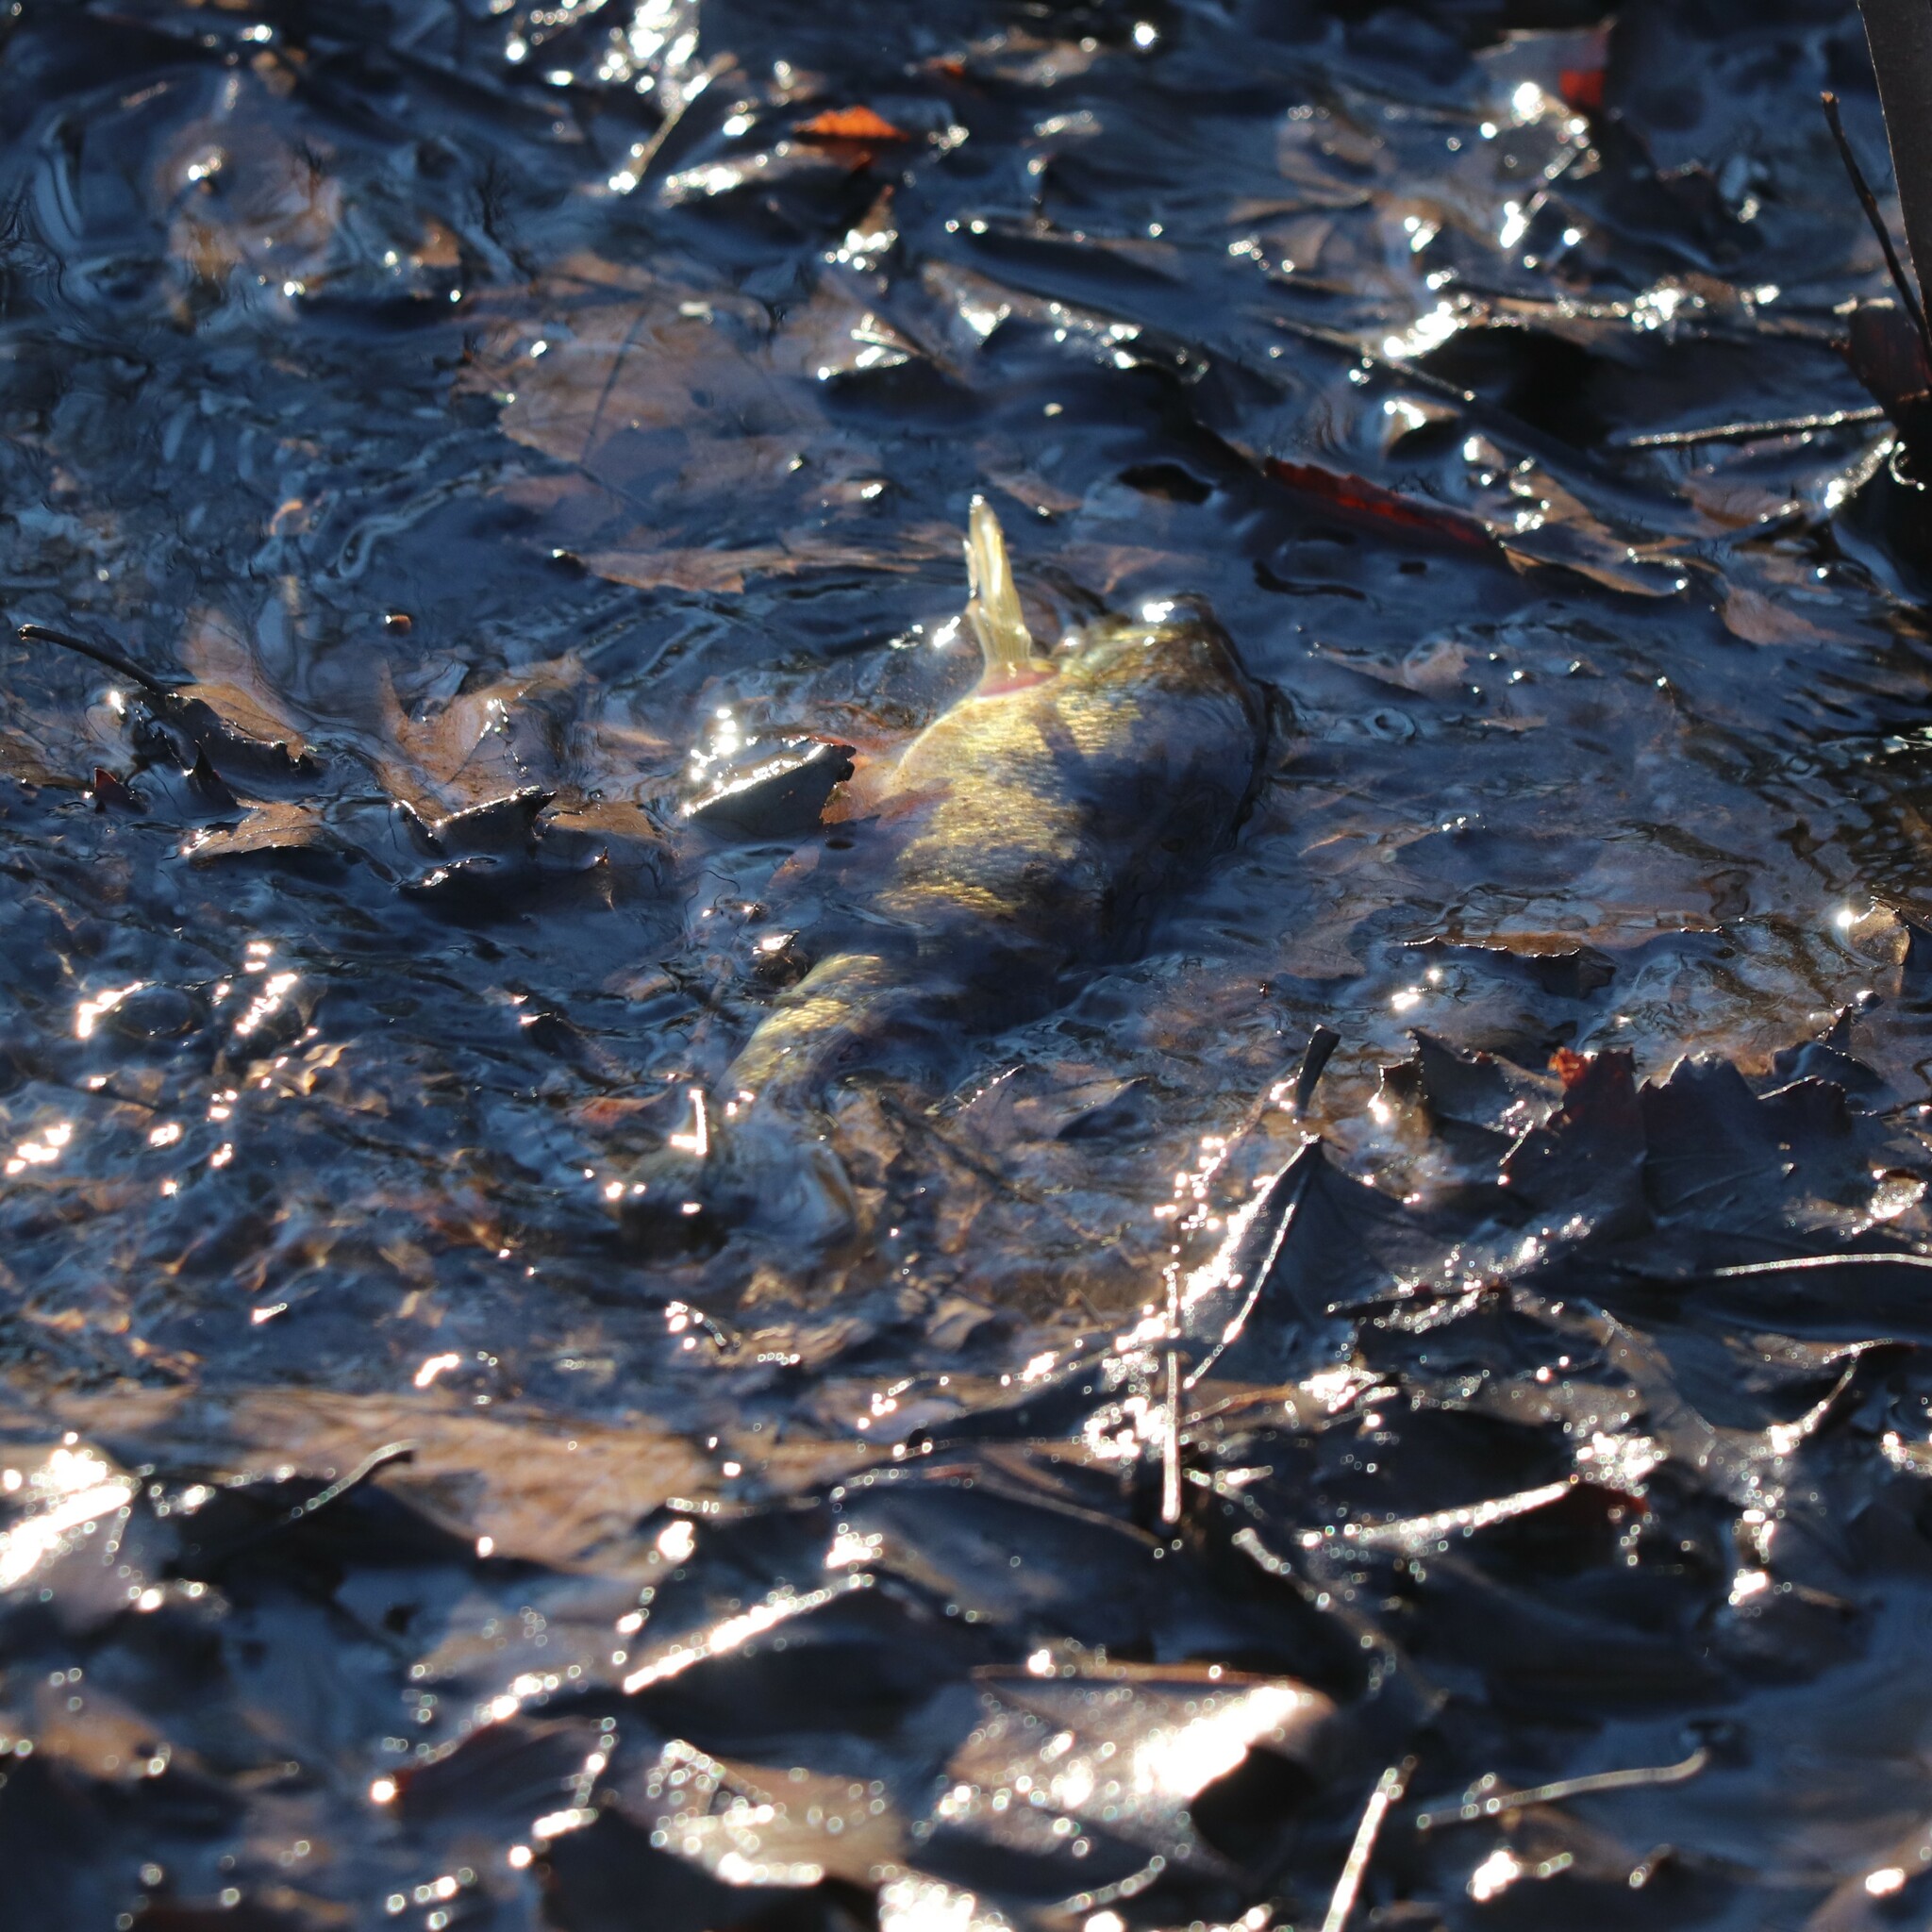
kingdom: Animalia
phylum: Chordata
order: Perciformes
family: Percidae
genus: Perca
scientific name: Perca flavescens
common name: Yellow perch
